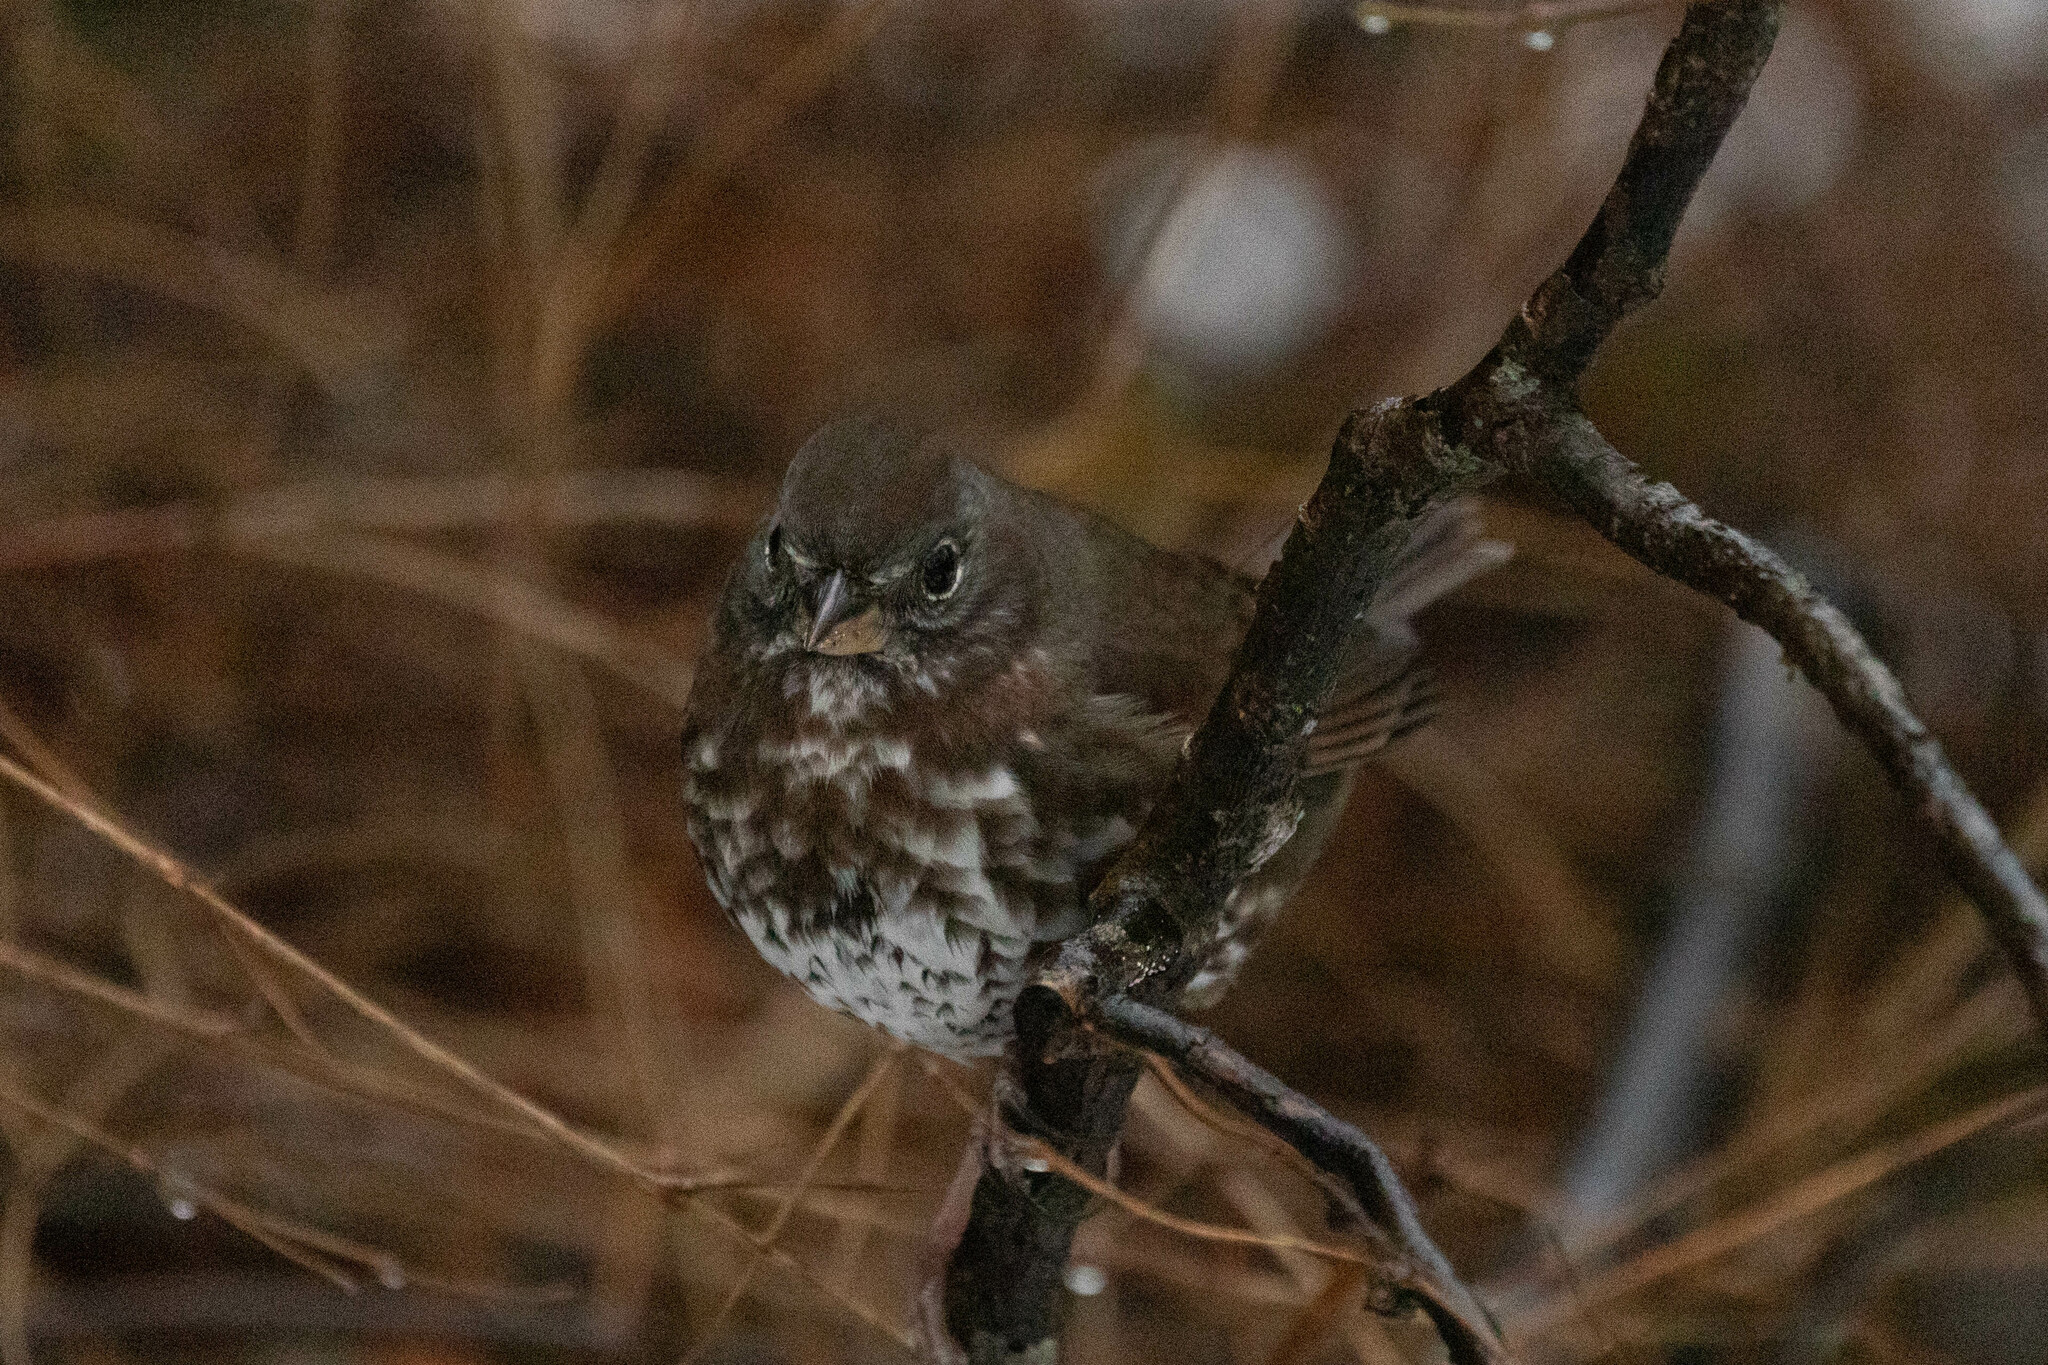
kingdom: Animalia
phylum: Chordata
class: Aves
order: Passeriformes
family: Passerellidae
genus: Passerella
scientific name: Passerella iliaca
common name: Fox sparrow
